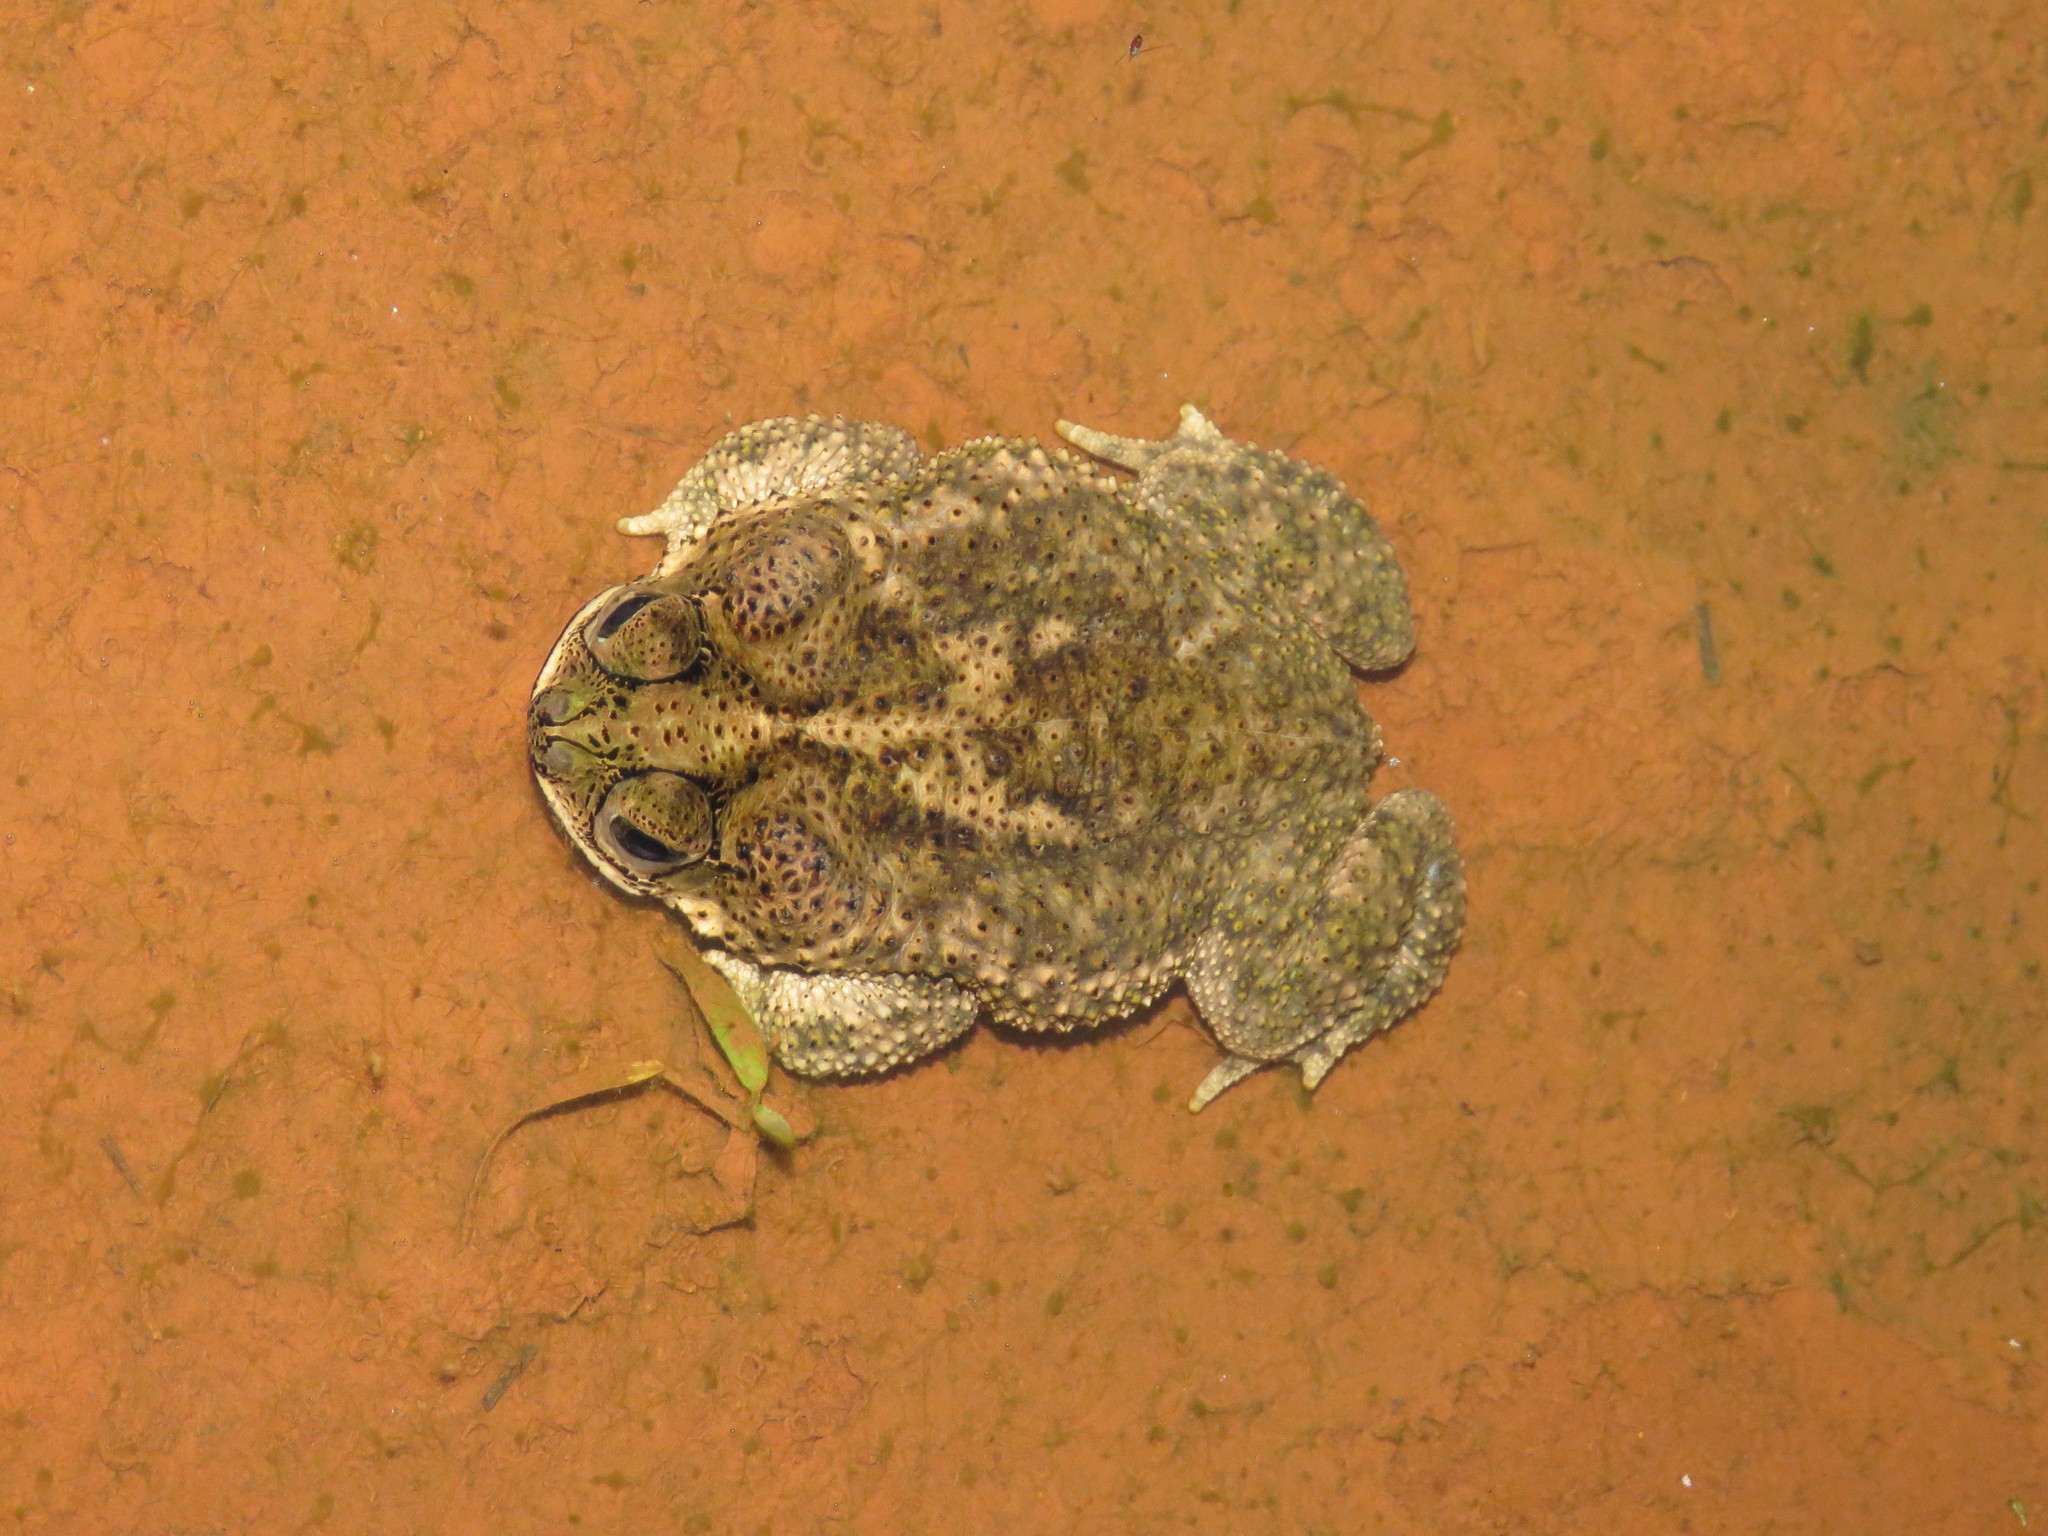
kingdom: Animalia
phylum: Chordata
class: Amphibia
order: Anura
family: Bufonidae
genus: Rhinella
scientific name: Rhinella major
